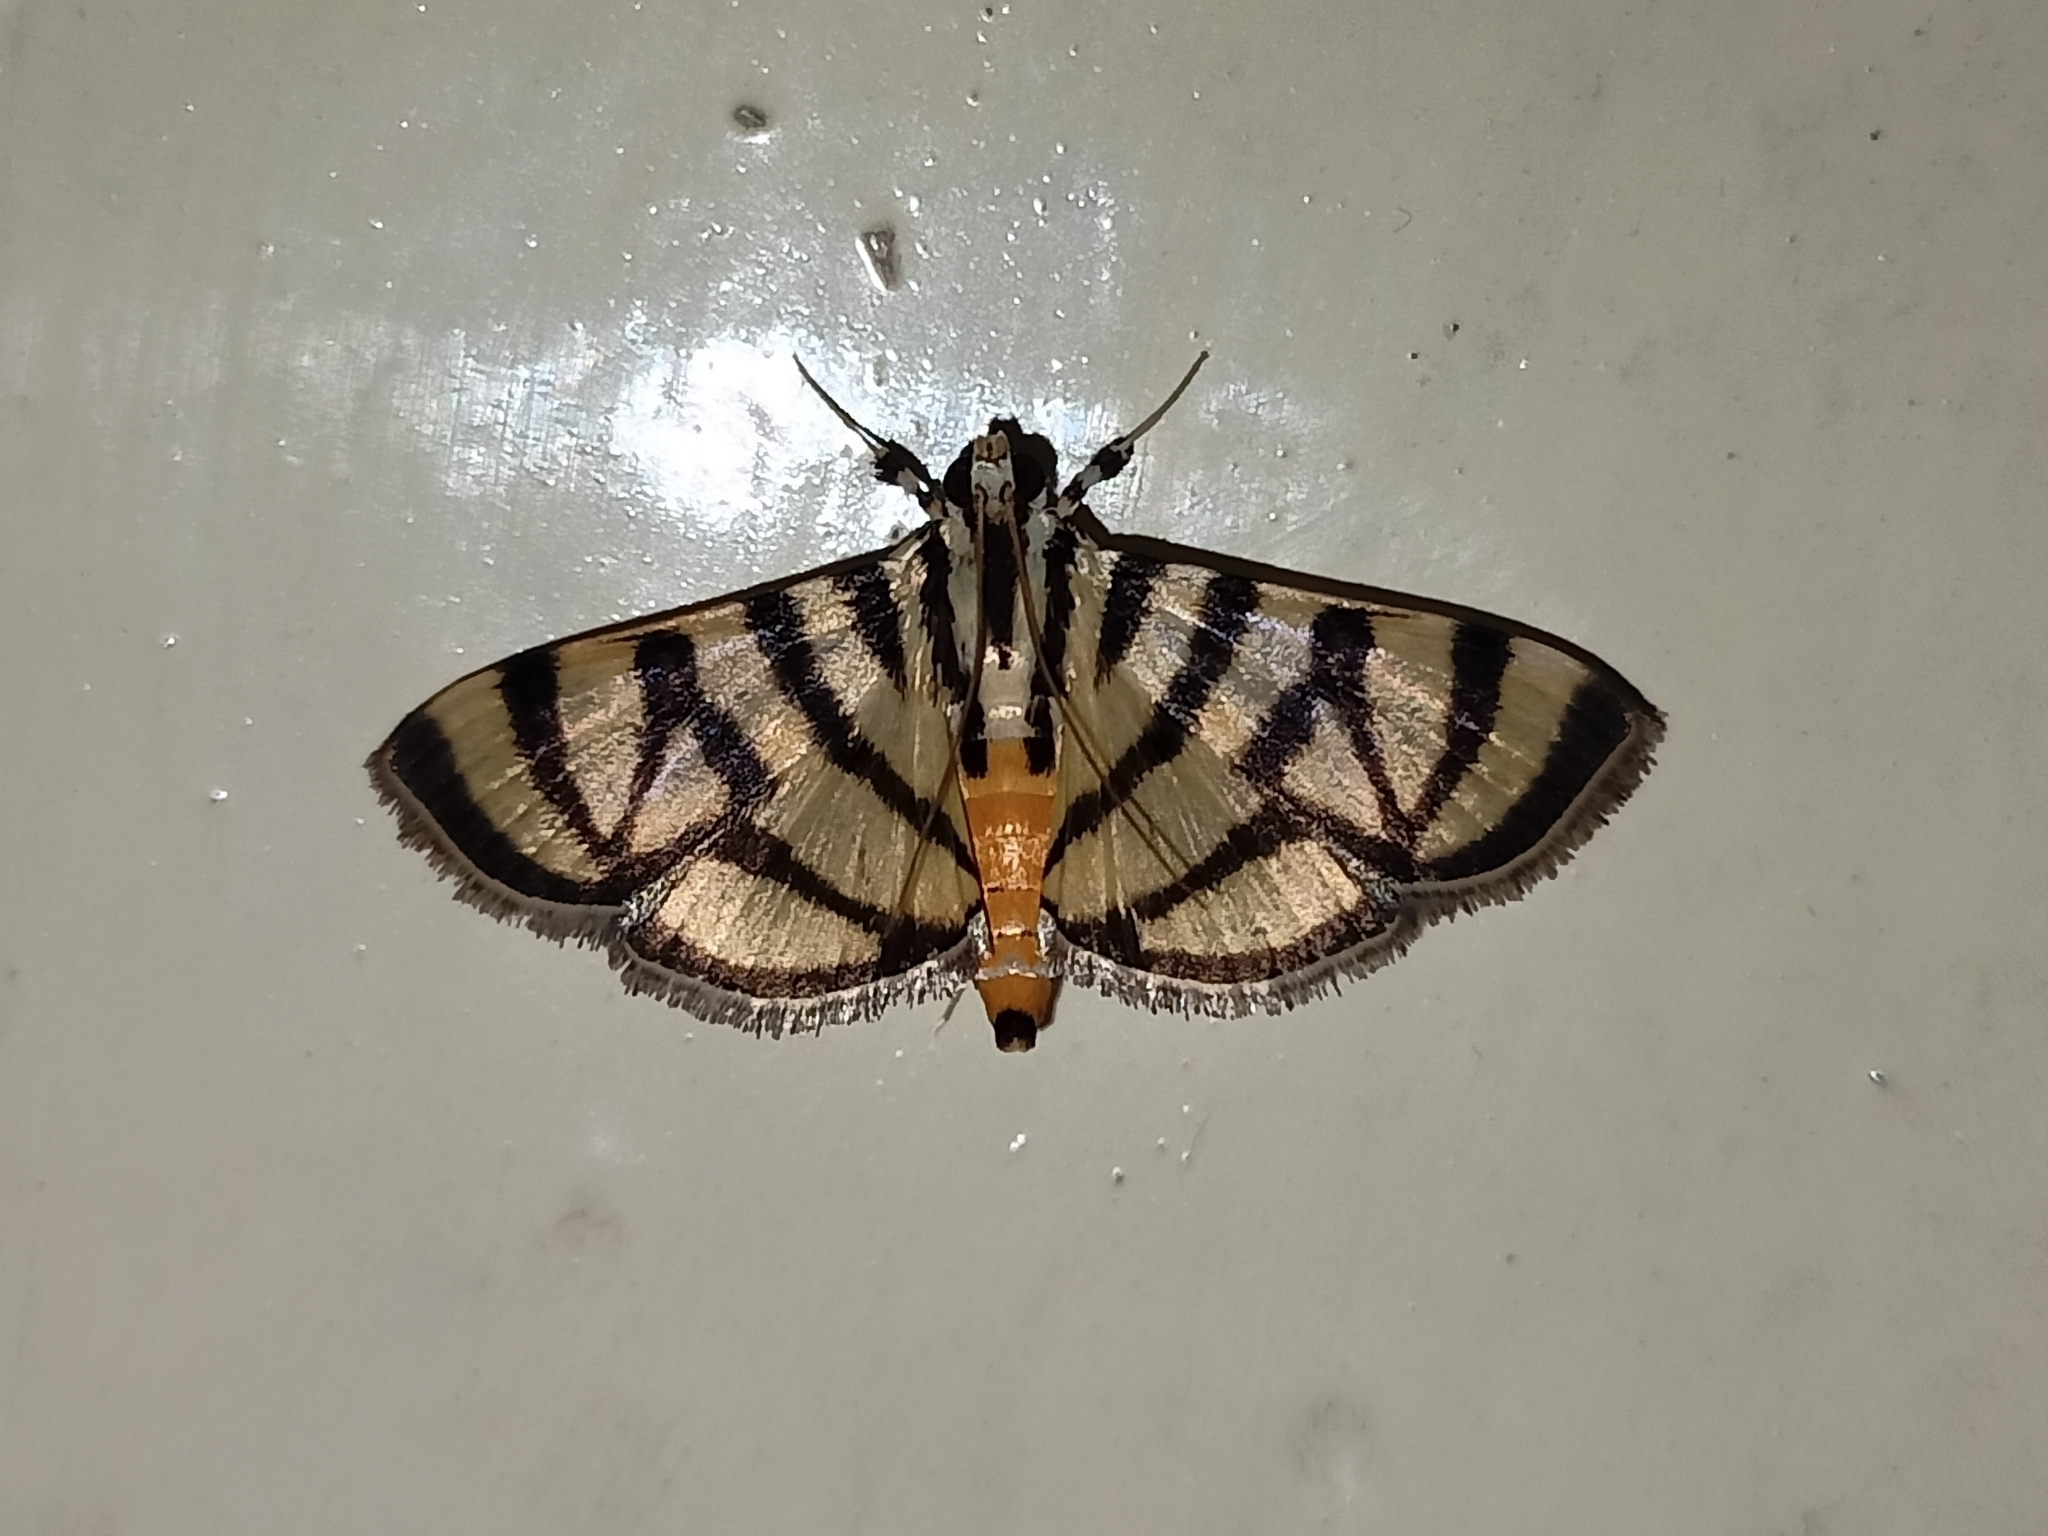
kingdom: Animalia
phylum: Arthropoda
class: Insecta
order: Lepidoptera
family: Crambidae
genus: Synclera
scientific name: Synclera
